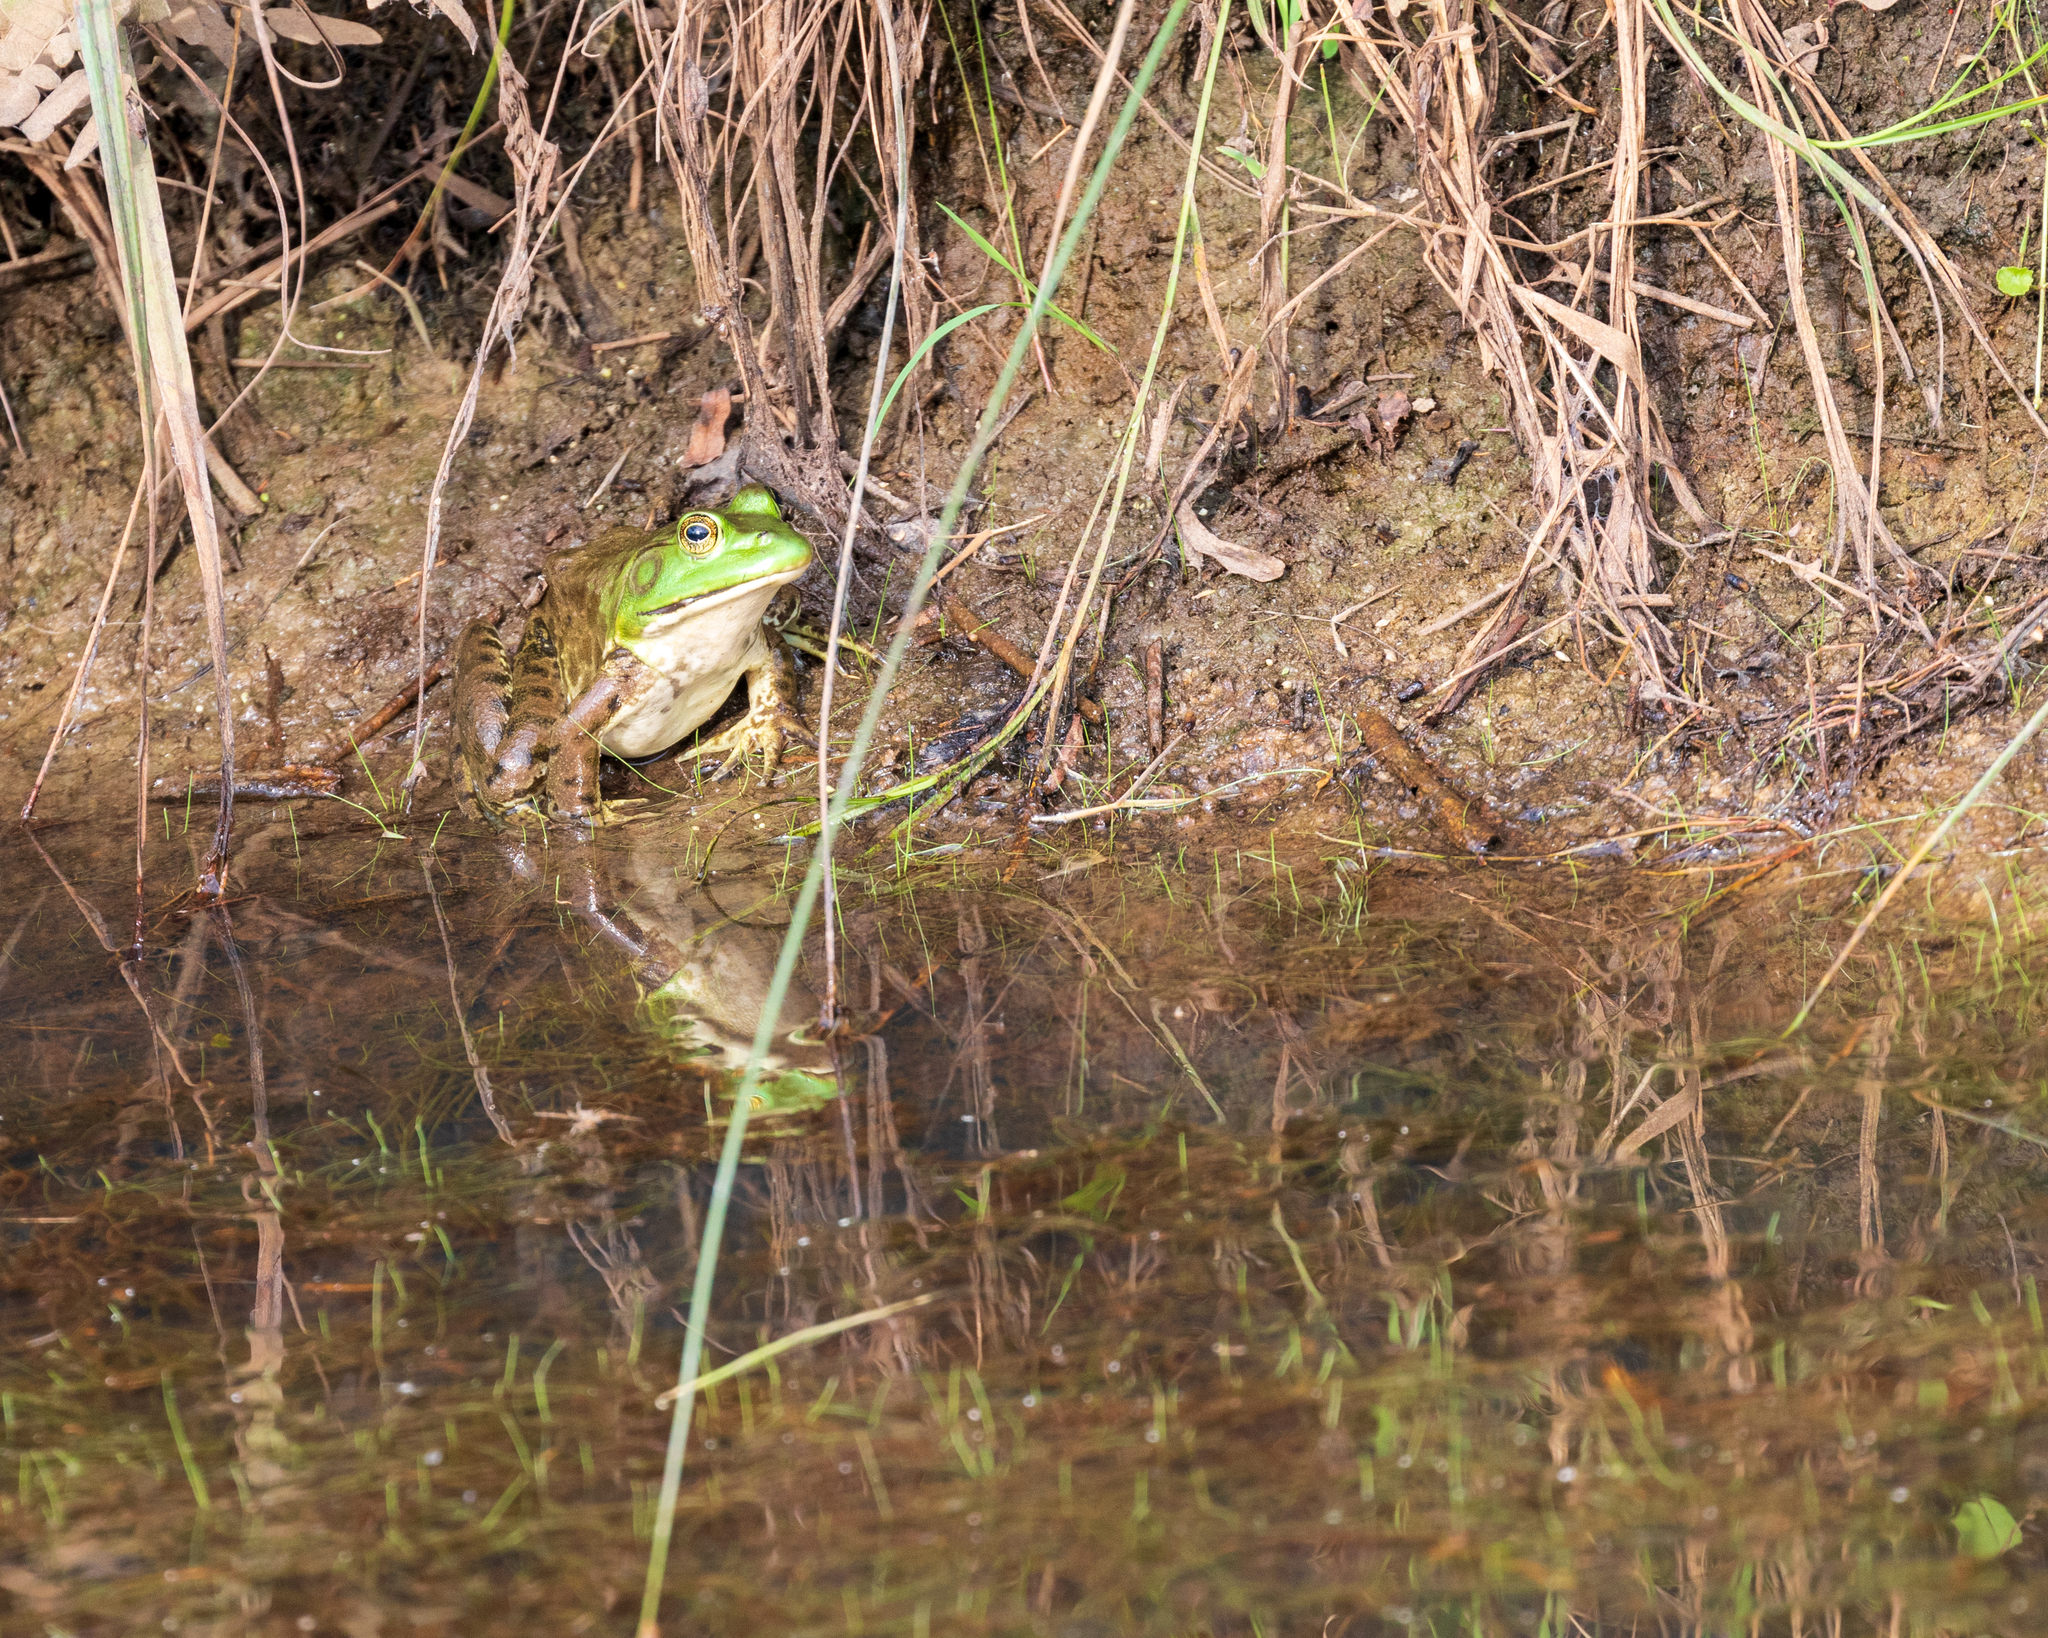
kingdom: Animalia
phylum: Chordata
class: Amphibia
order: Anura
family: Ranidae
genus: Lithobates
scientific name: Lithobates catesbeianus
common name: American bullfrog
